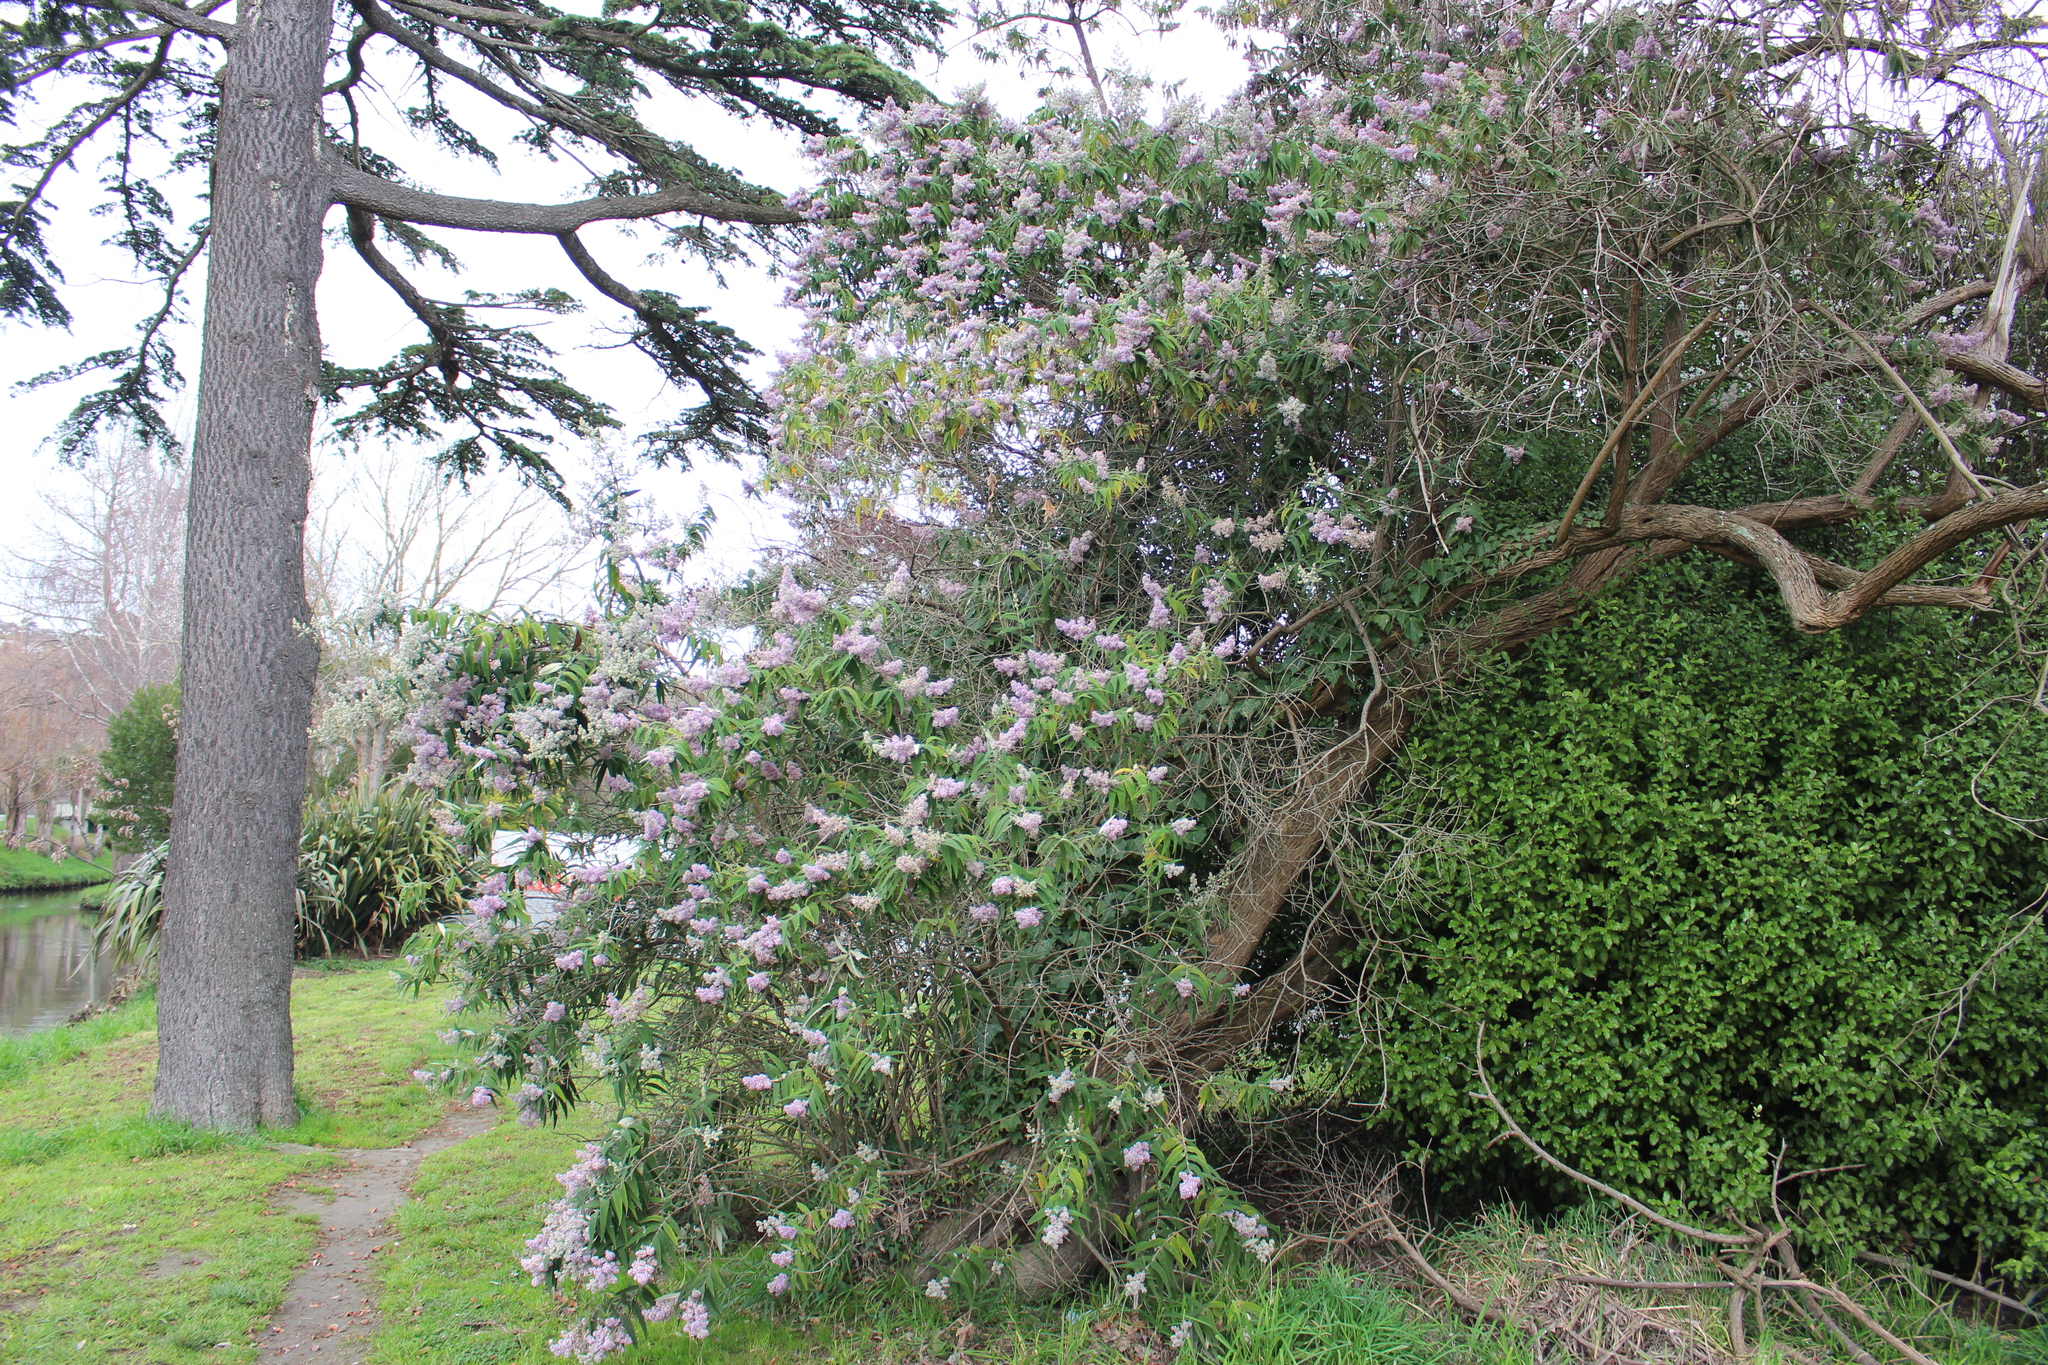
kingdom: Plantae
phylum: Tracheophyta
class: Magnoliopsida
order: Lamiales
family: Scrophulariaceae
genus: Buddleja
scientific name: Buddleja davidii
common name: Butterfly-bush
